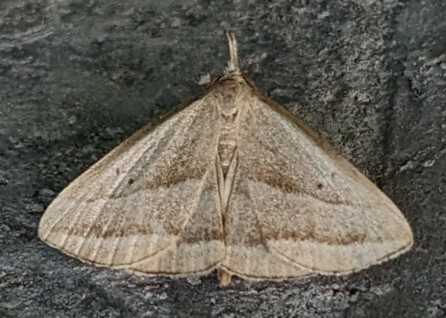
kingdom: Animalia
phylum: Arthropoda
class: Insecta
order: Lepidoptera
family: Erebidae
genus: Macrochilo
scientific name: Macrochilo absorptalis
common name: Slant-lined owlet
